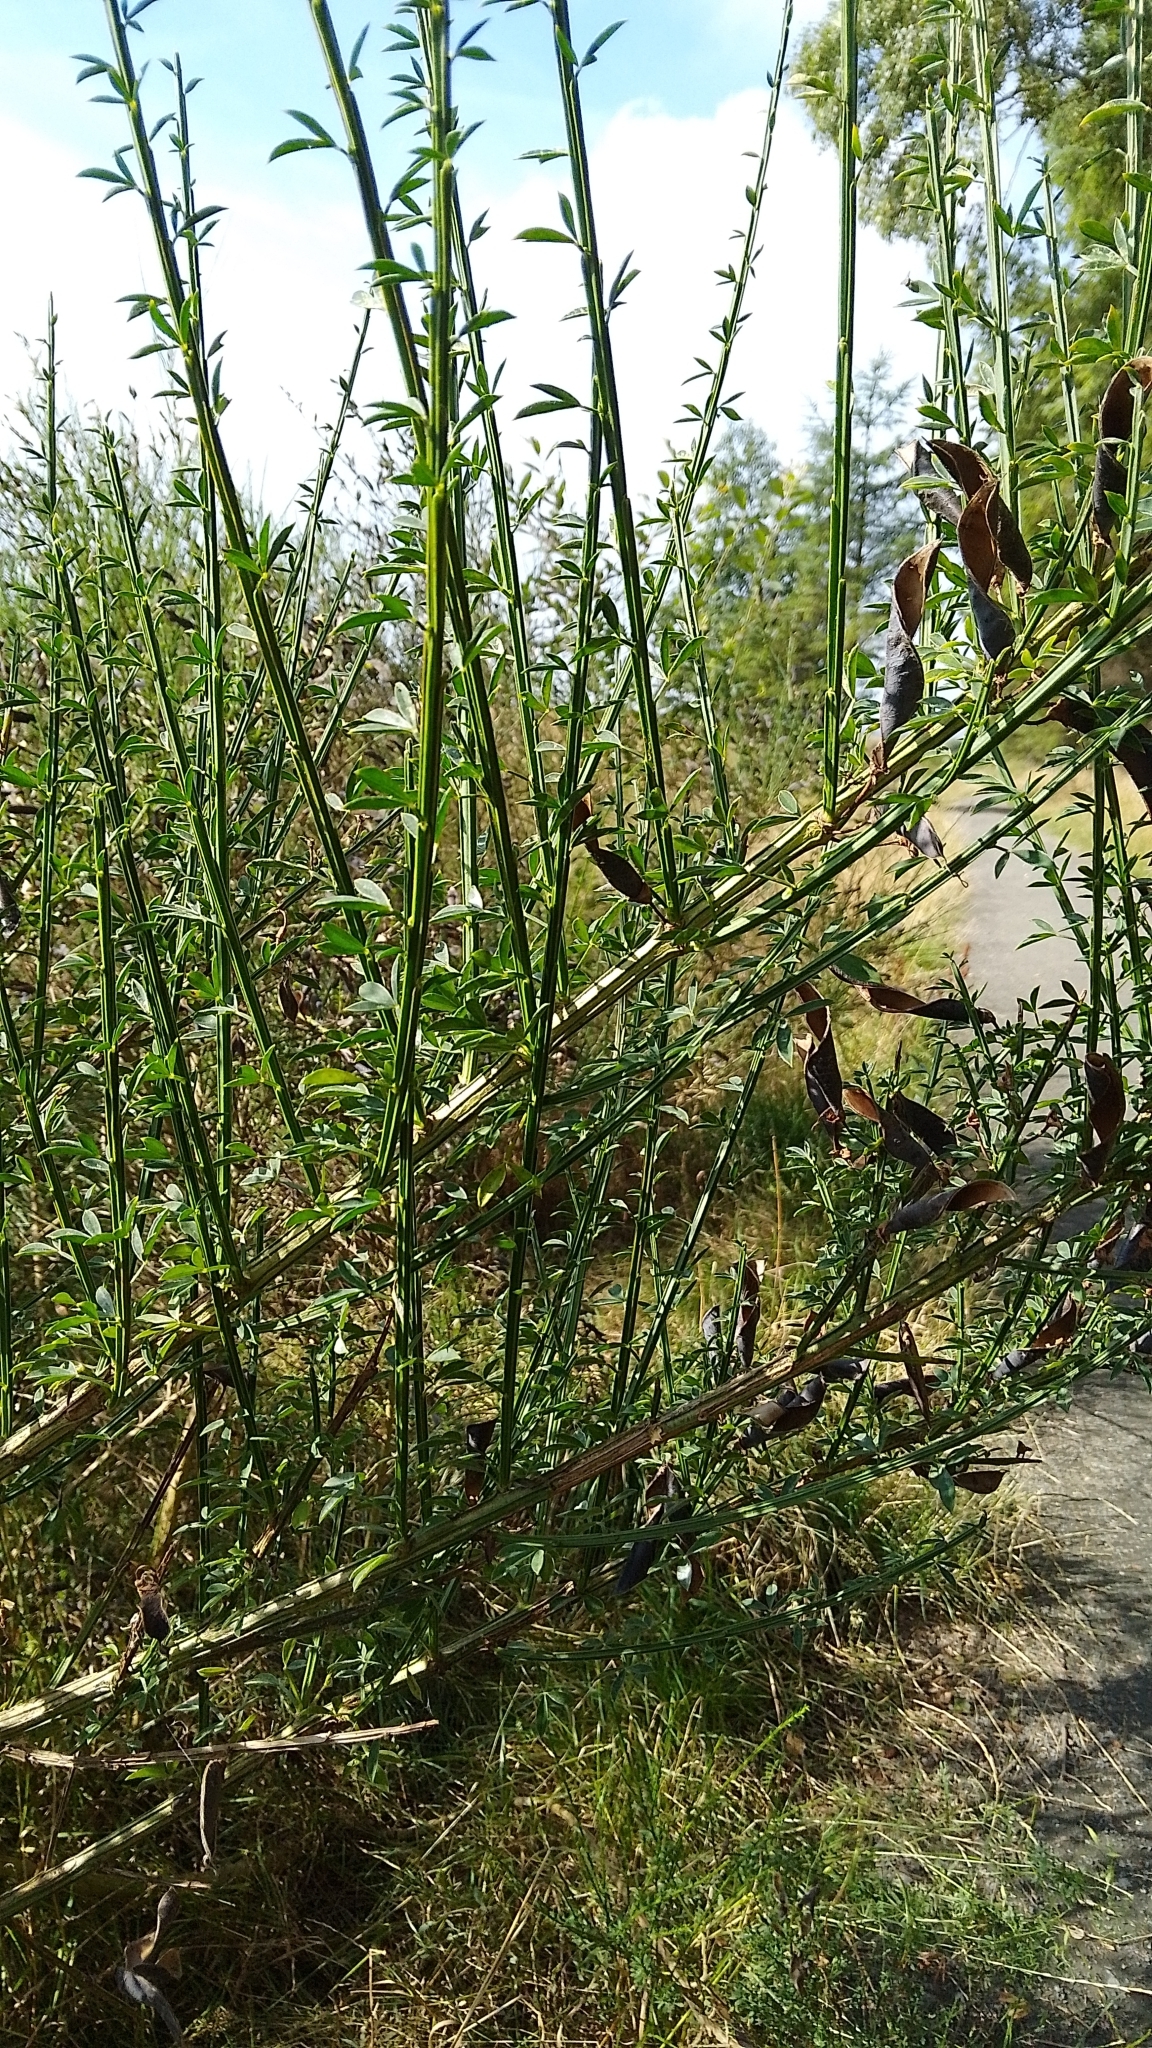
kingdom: Plantae
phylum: Tracheophyta
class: Magnoliopsida
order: Fabales
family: Fabaceae
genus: Cytisus
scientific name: Cytisus scoparius
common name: Scotch broom
